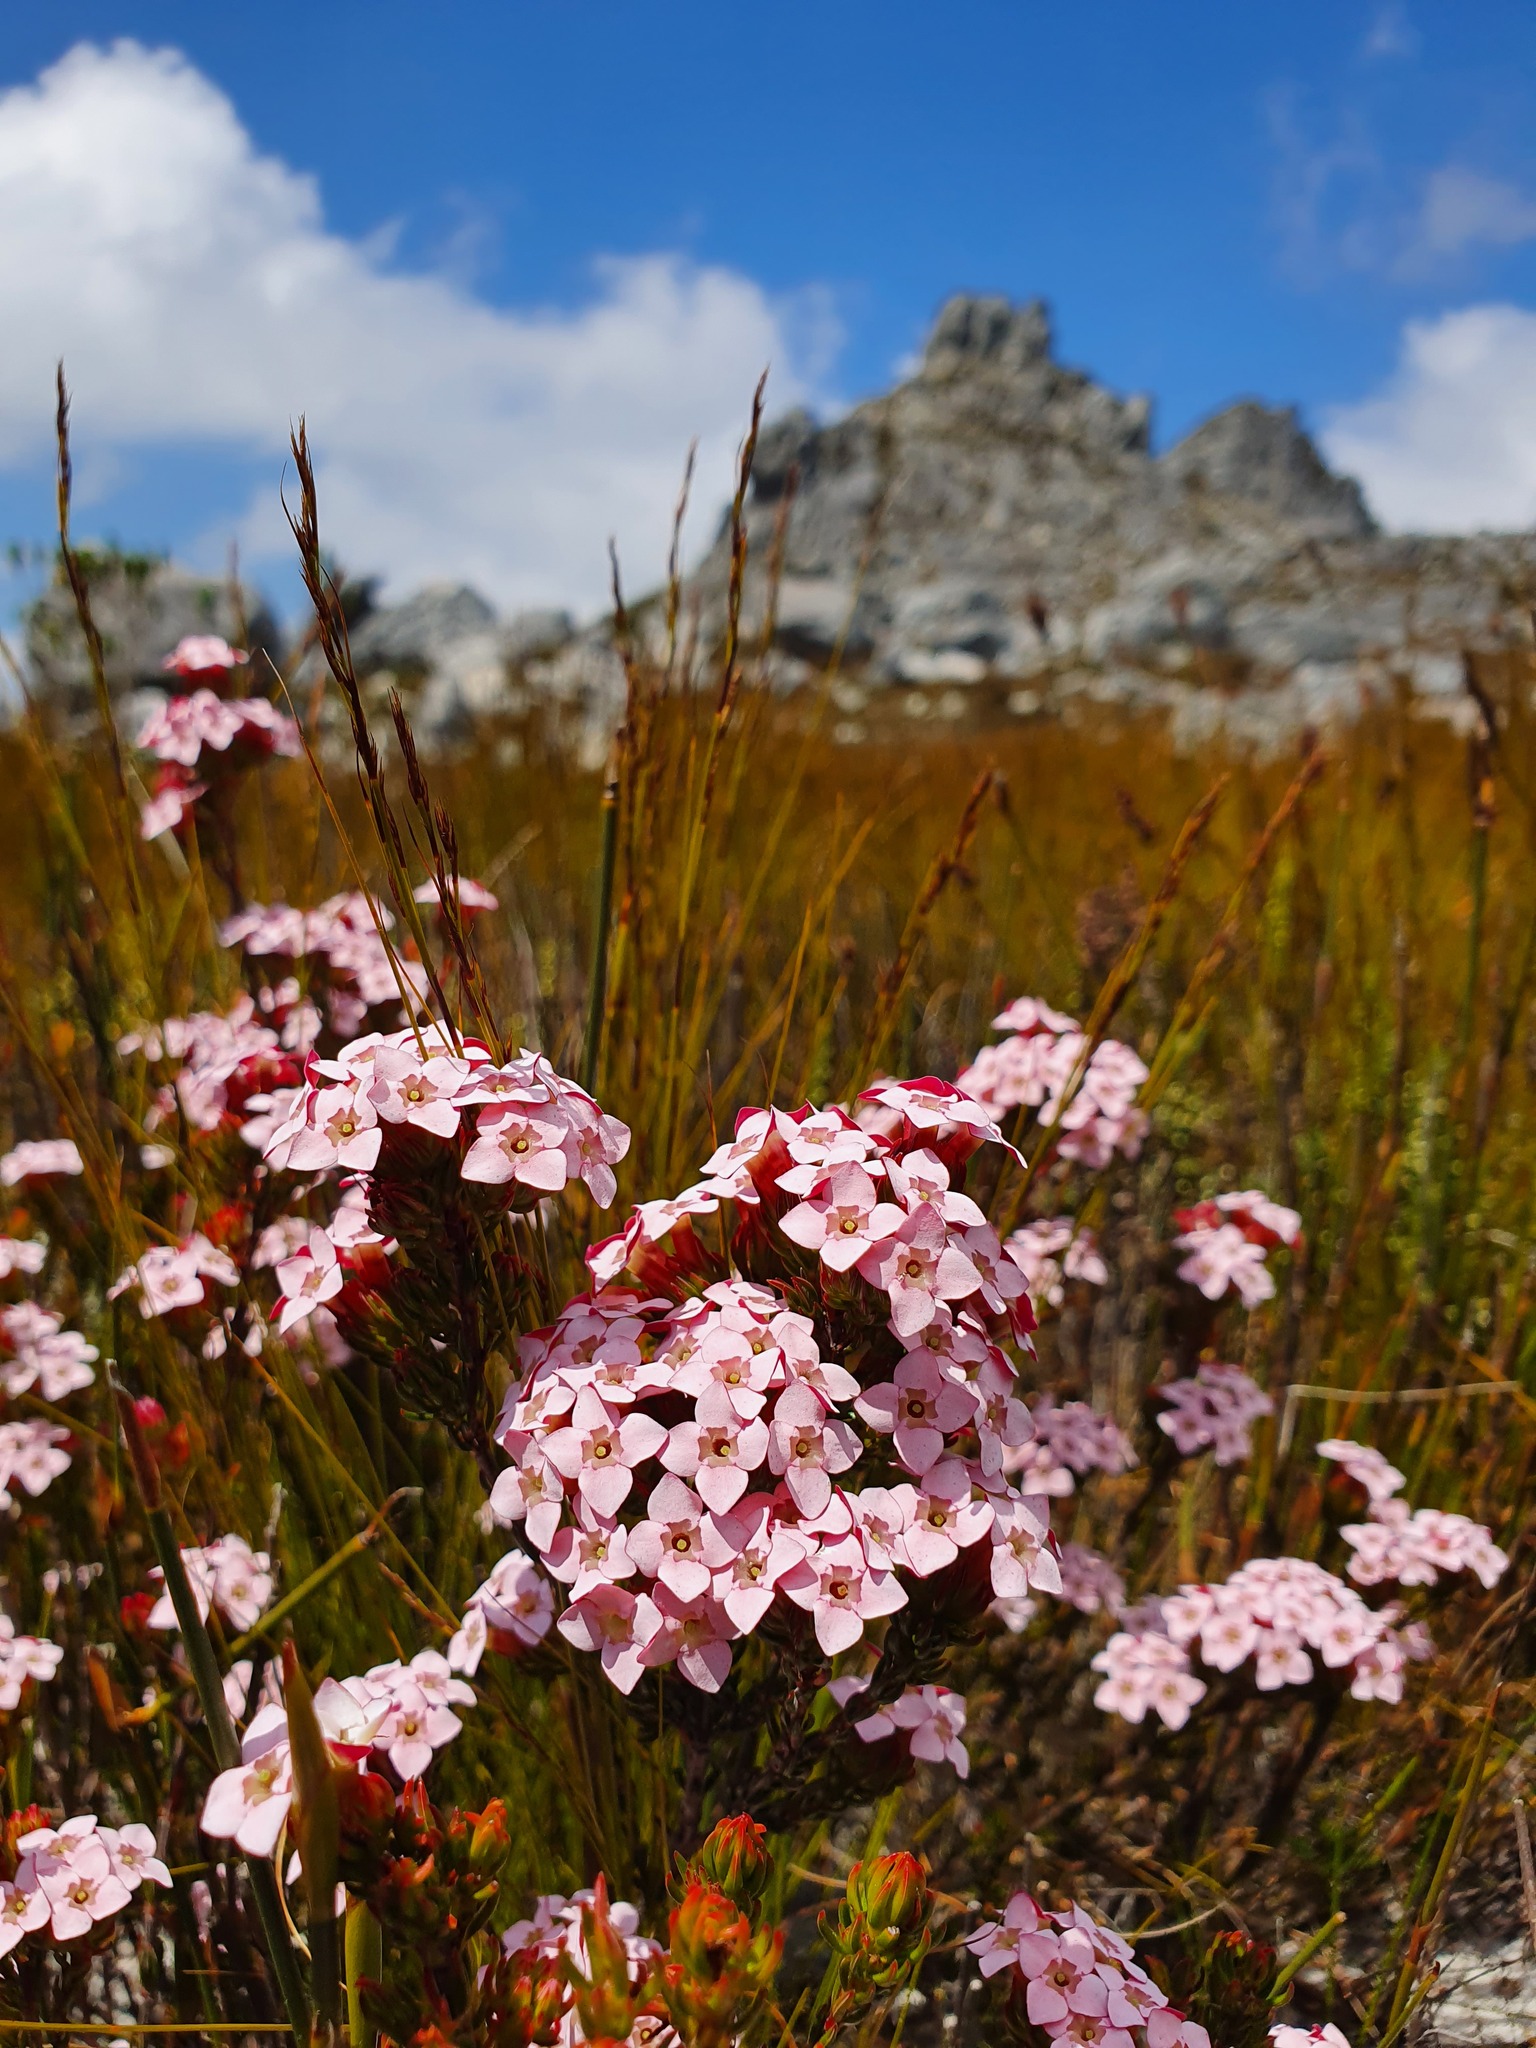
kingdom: Plantae
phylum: Tracheophyta
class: Magnoliopsida
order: Ericales
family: Ericaceae
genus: Erica
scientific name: Erica fastigiata
